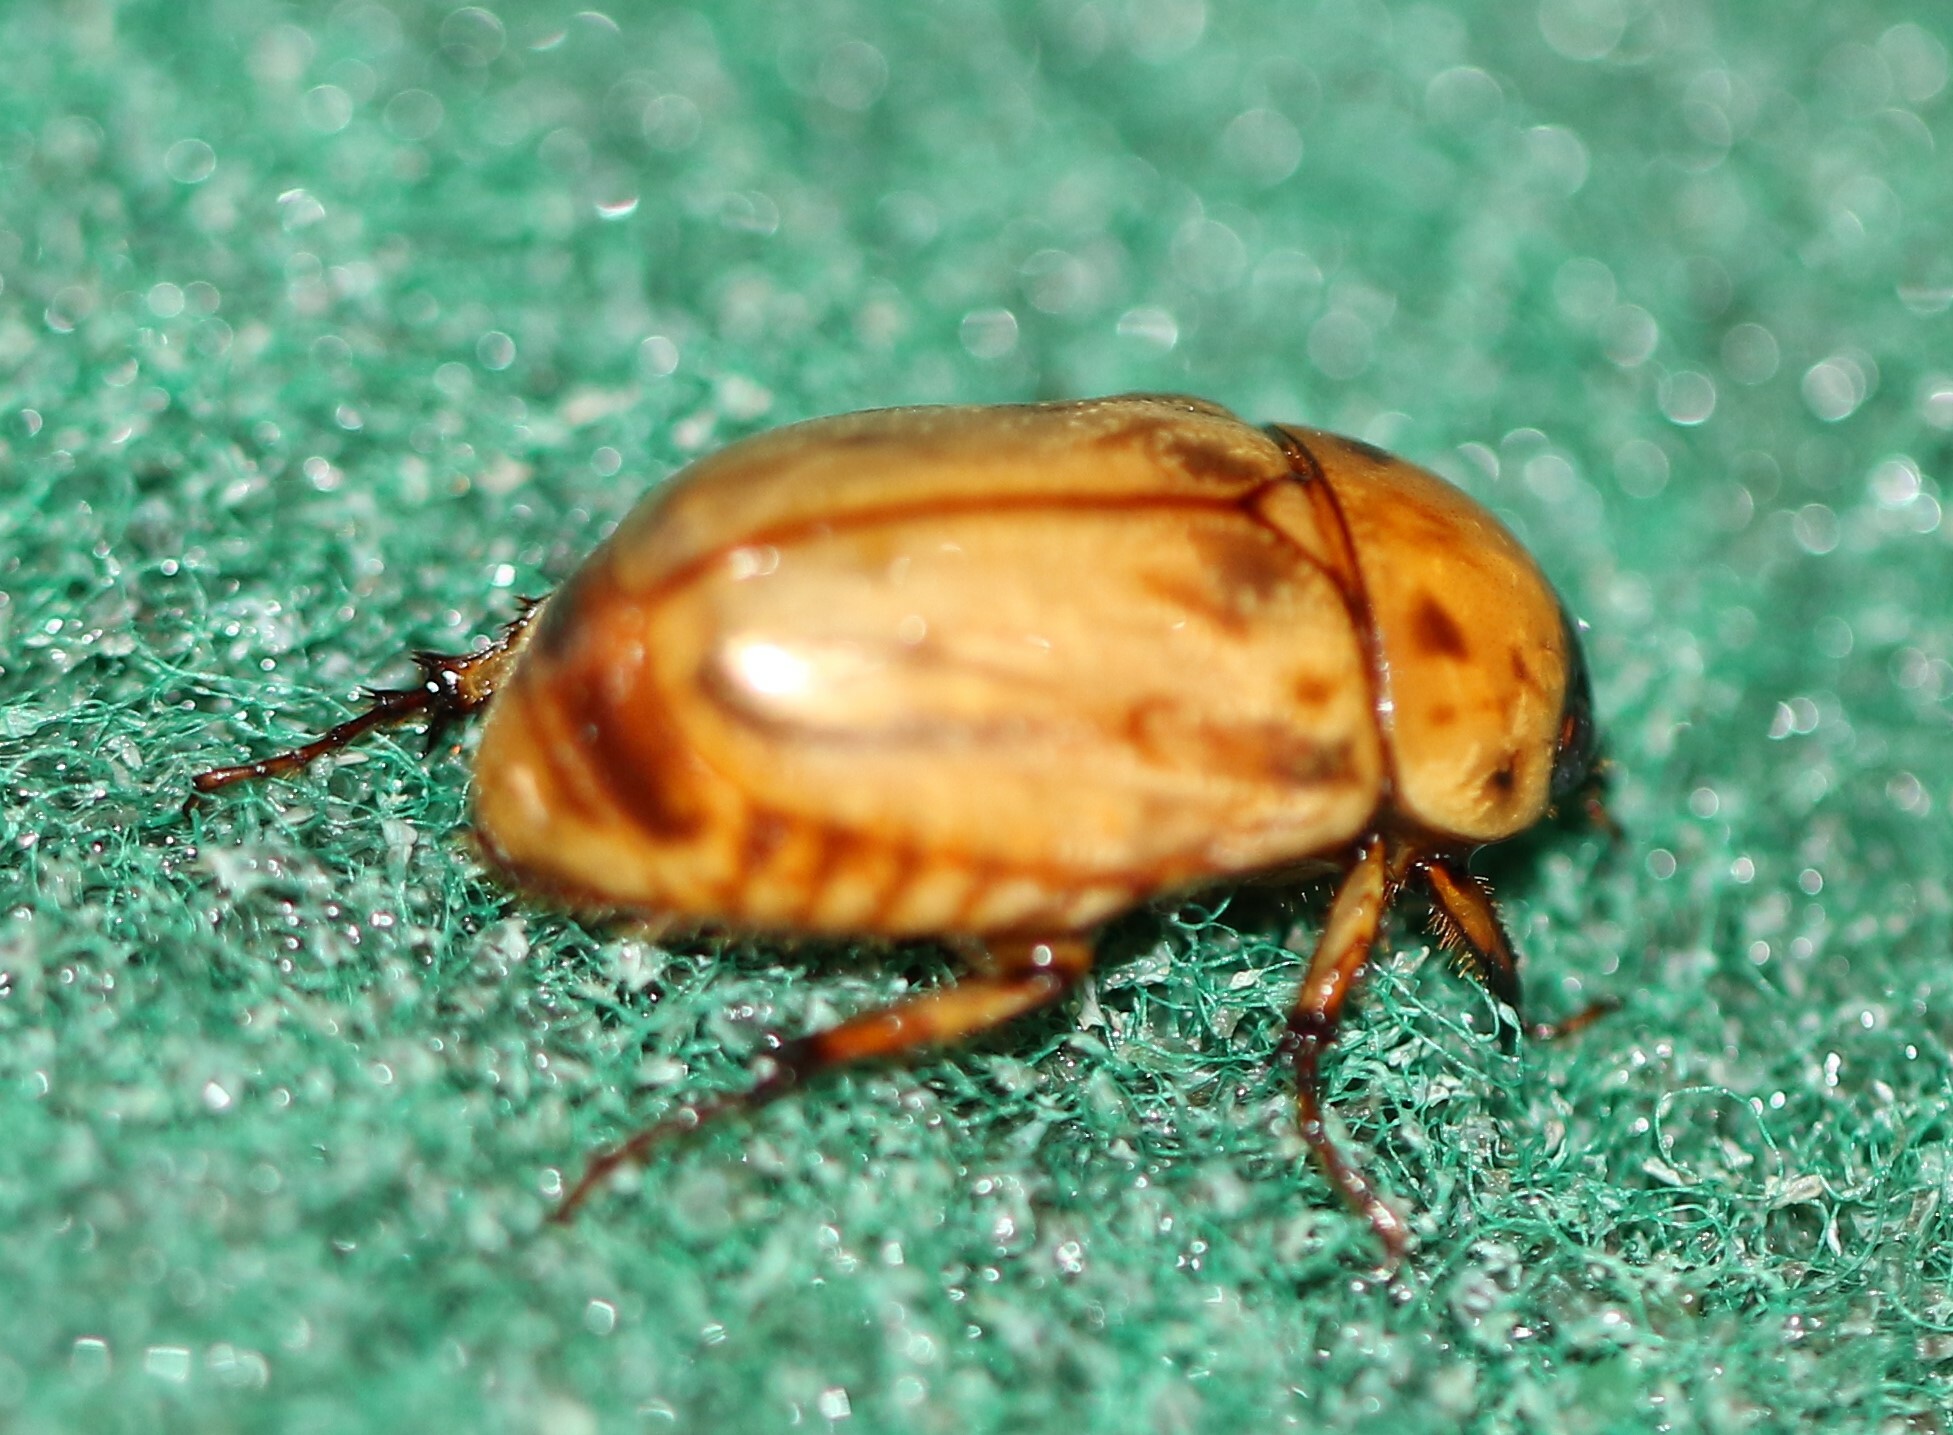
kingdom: Animalia
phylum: Arthropoda
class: Insecta
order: Coleoptera
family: Scarabaeidae
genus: Cyclocephala
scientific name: Cyclocephala lunulata
